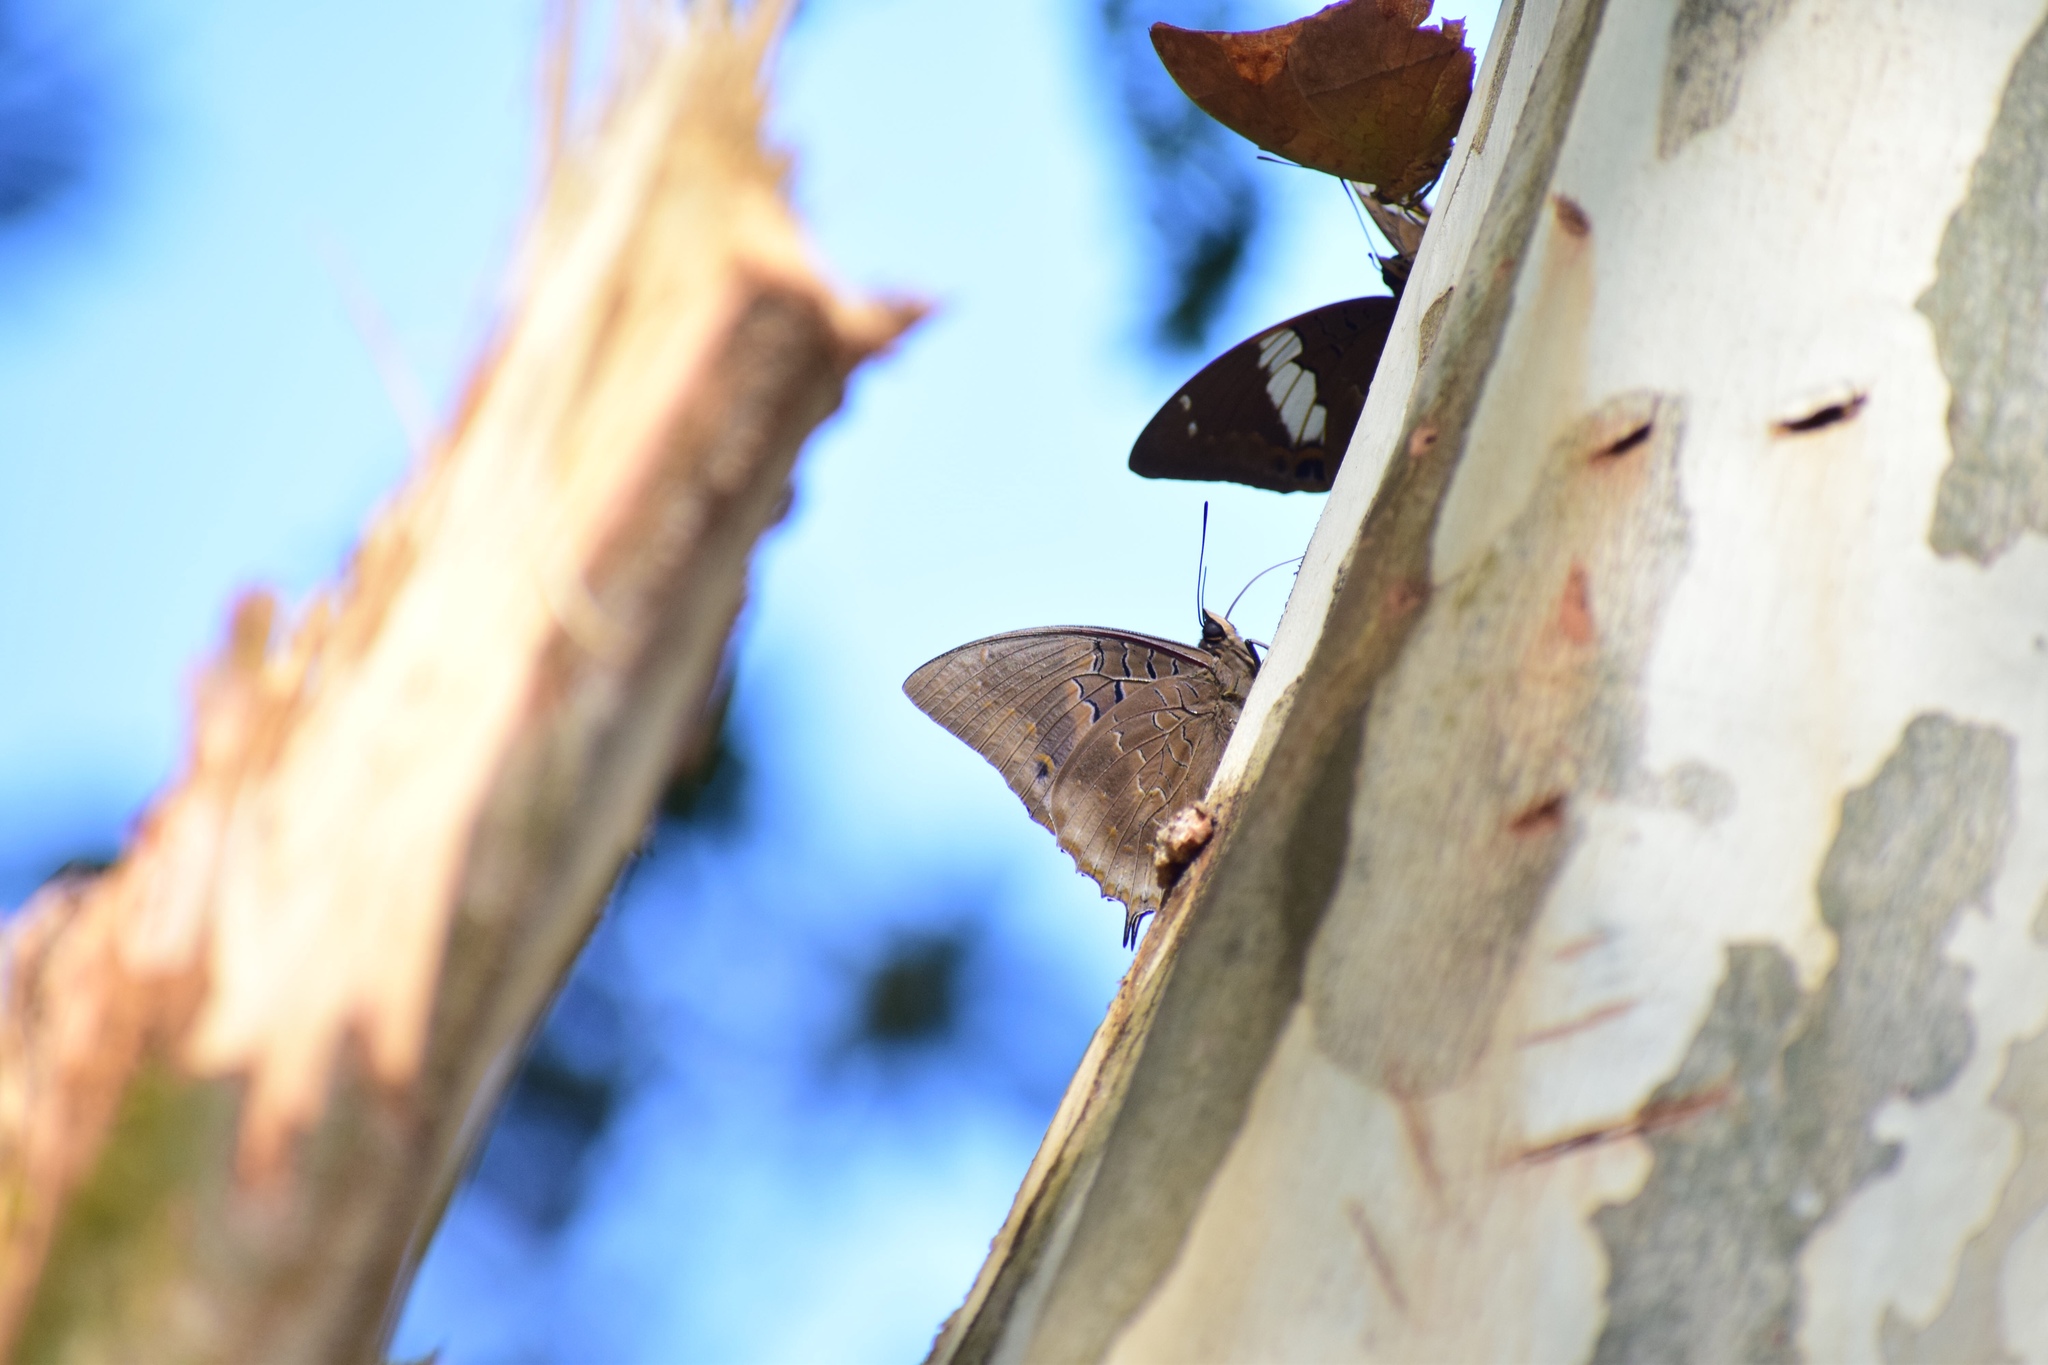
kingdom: Animalia
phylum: Arthropoda
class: Insecta
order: Lepidoptera
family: Nymphalidae
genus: Charaxes
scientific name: Charaxes cithaeron
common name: Blue-spotted charaxes
